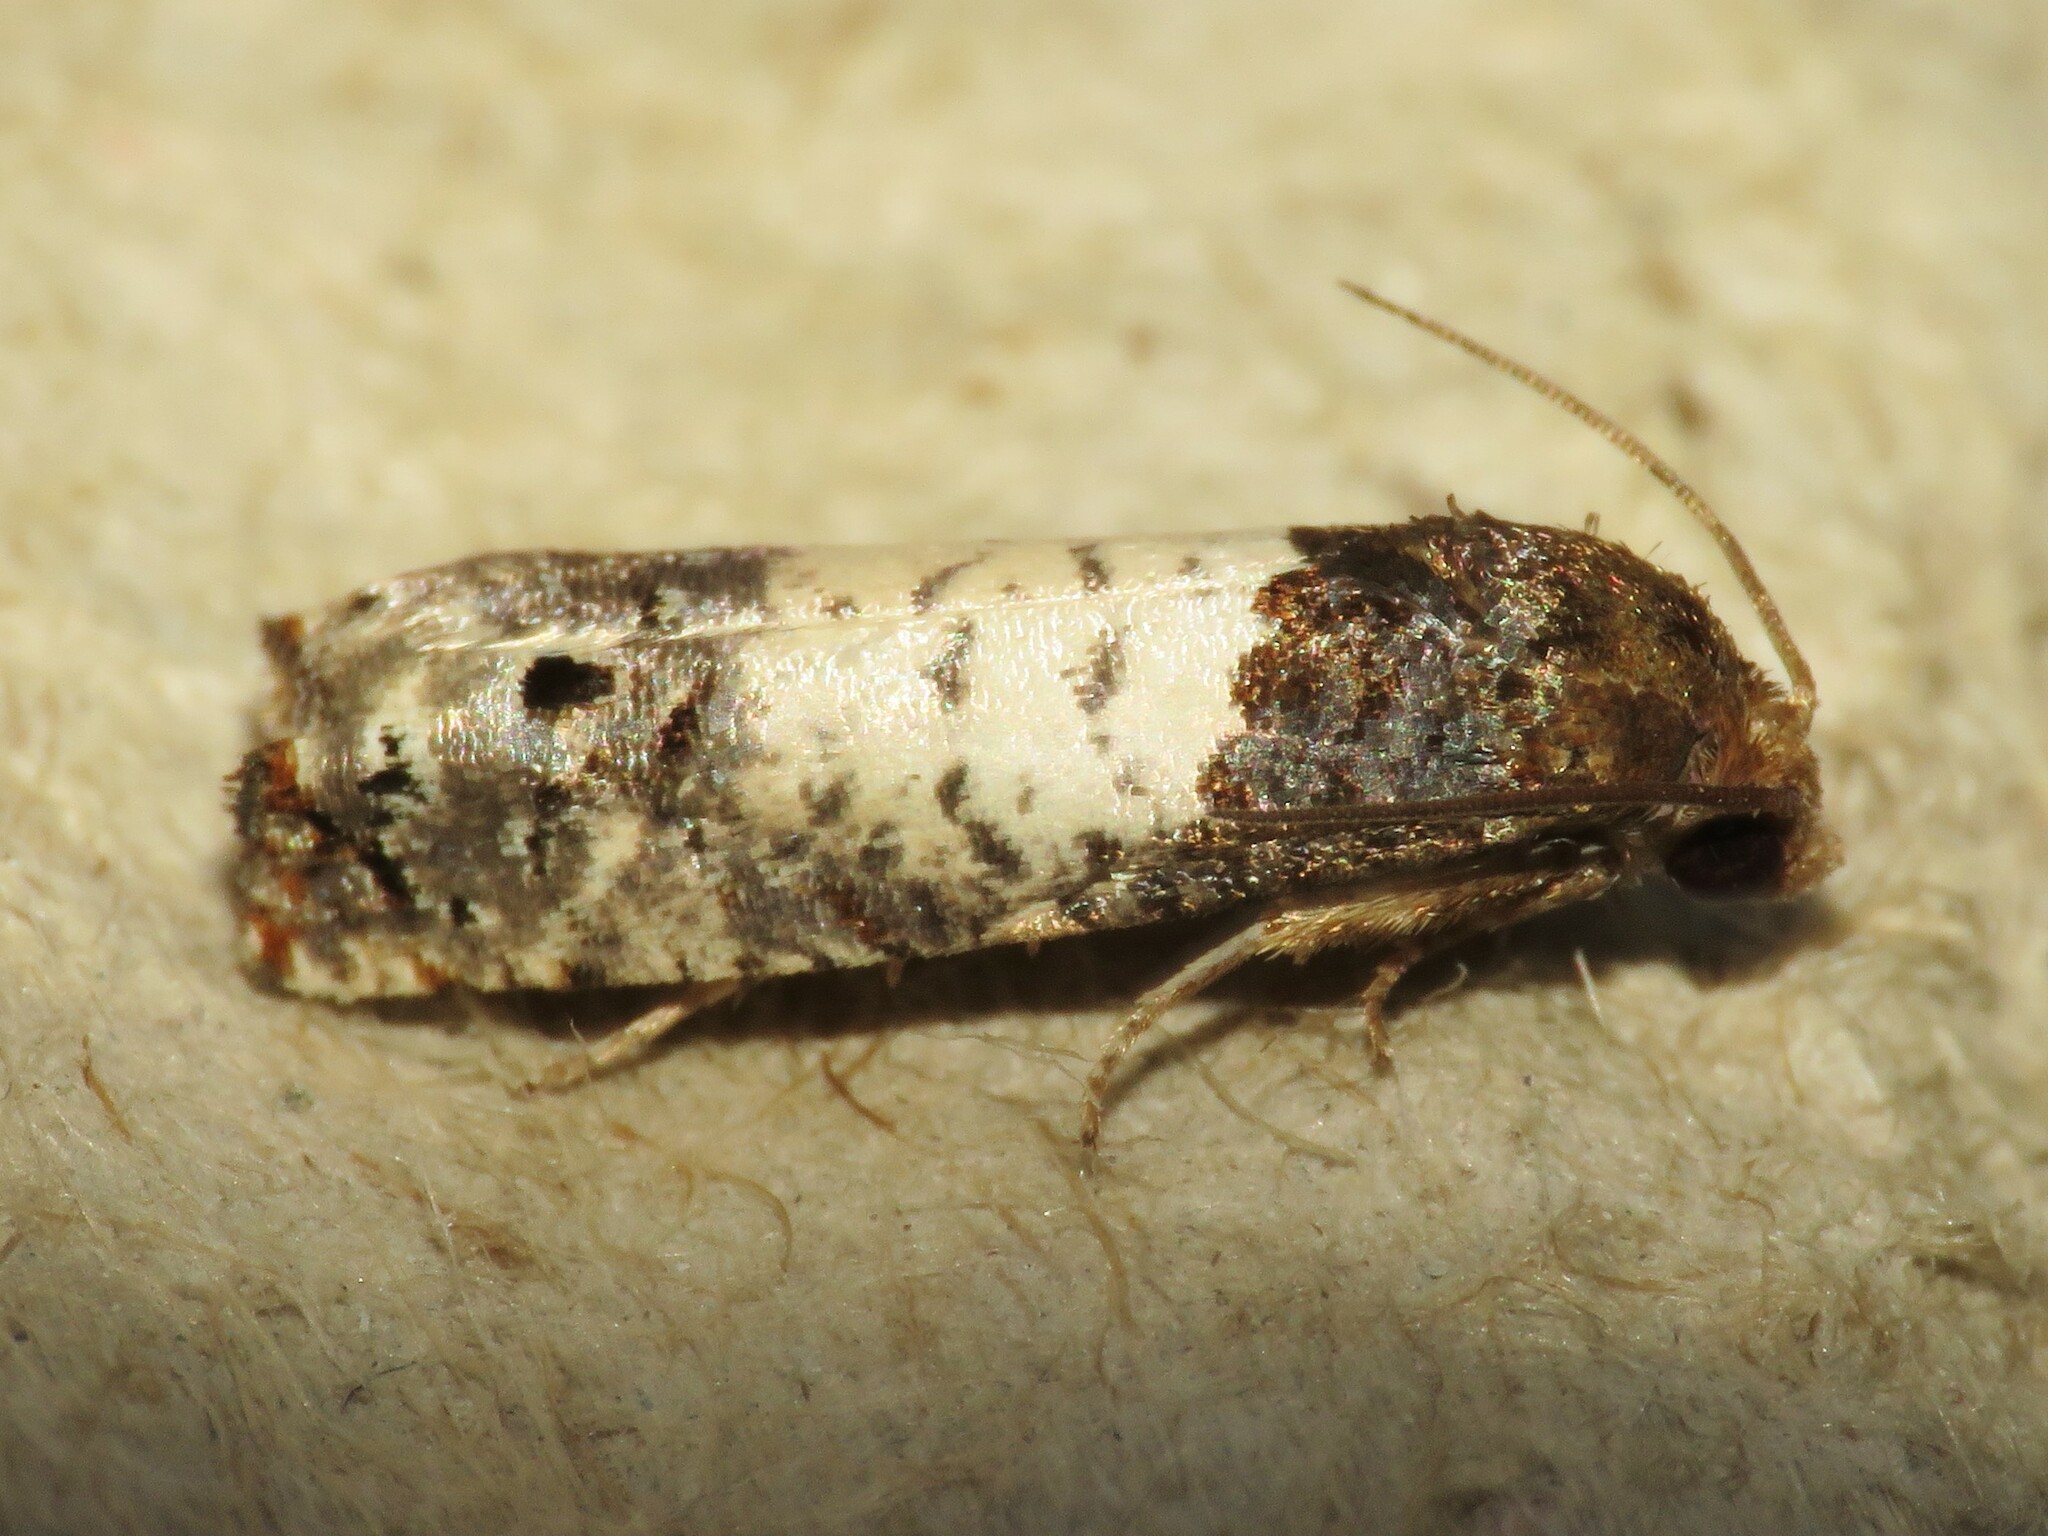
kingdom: Animalia
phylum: Arthropoda
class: Insecta
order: Lepidoptera
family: Tortricidae
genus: Epiblema
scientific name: Epiblema scudderiana
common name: Goldenrod gall moth
